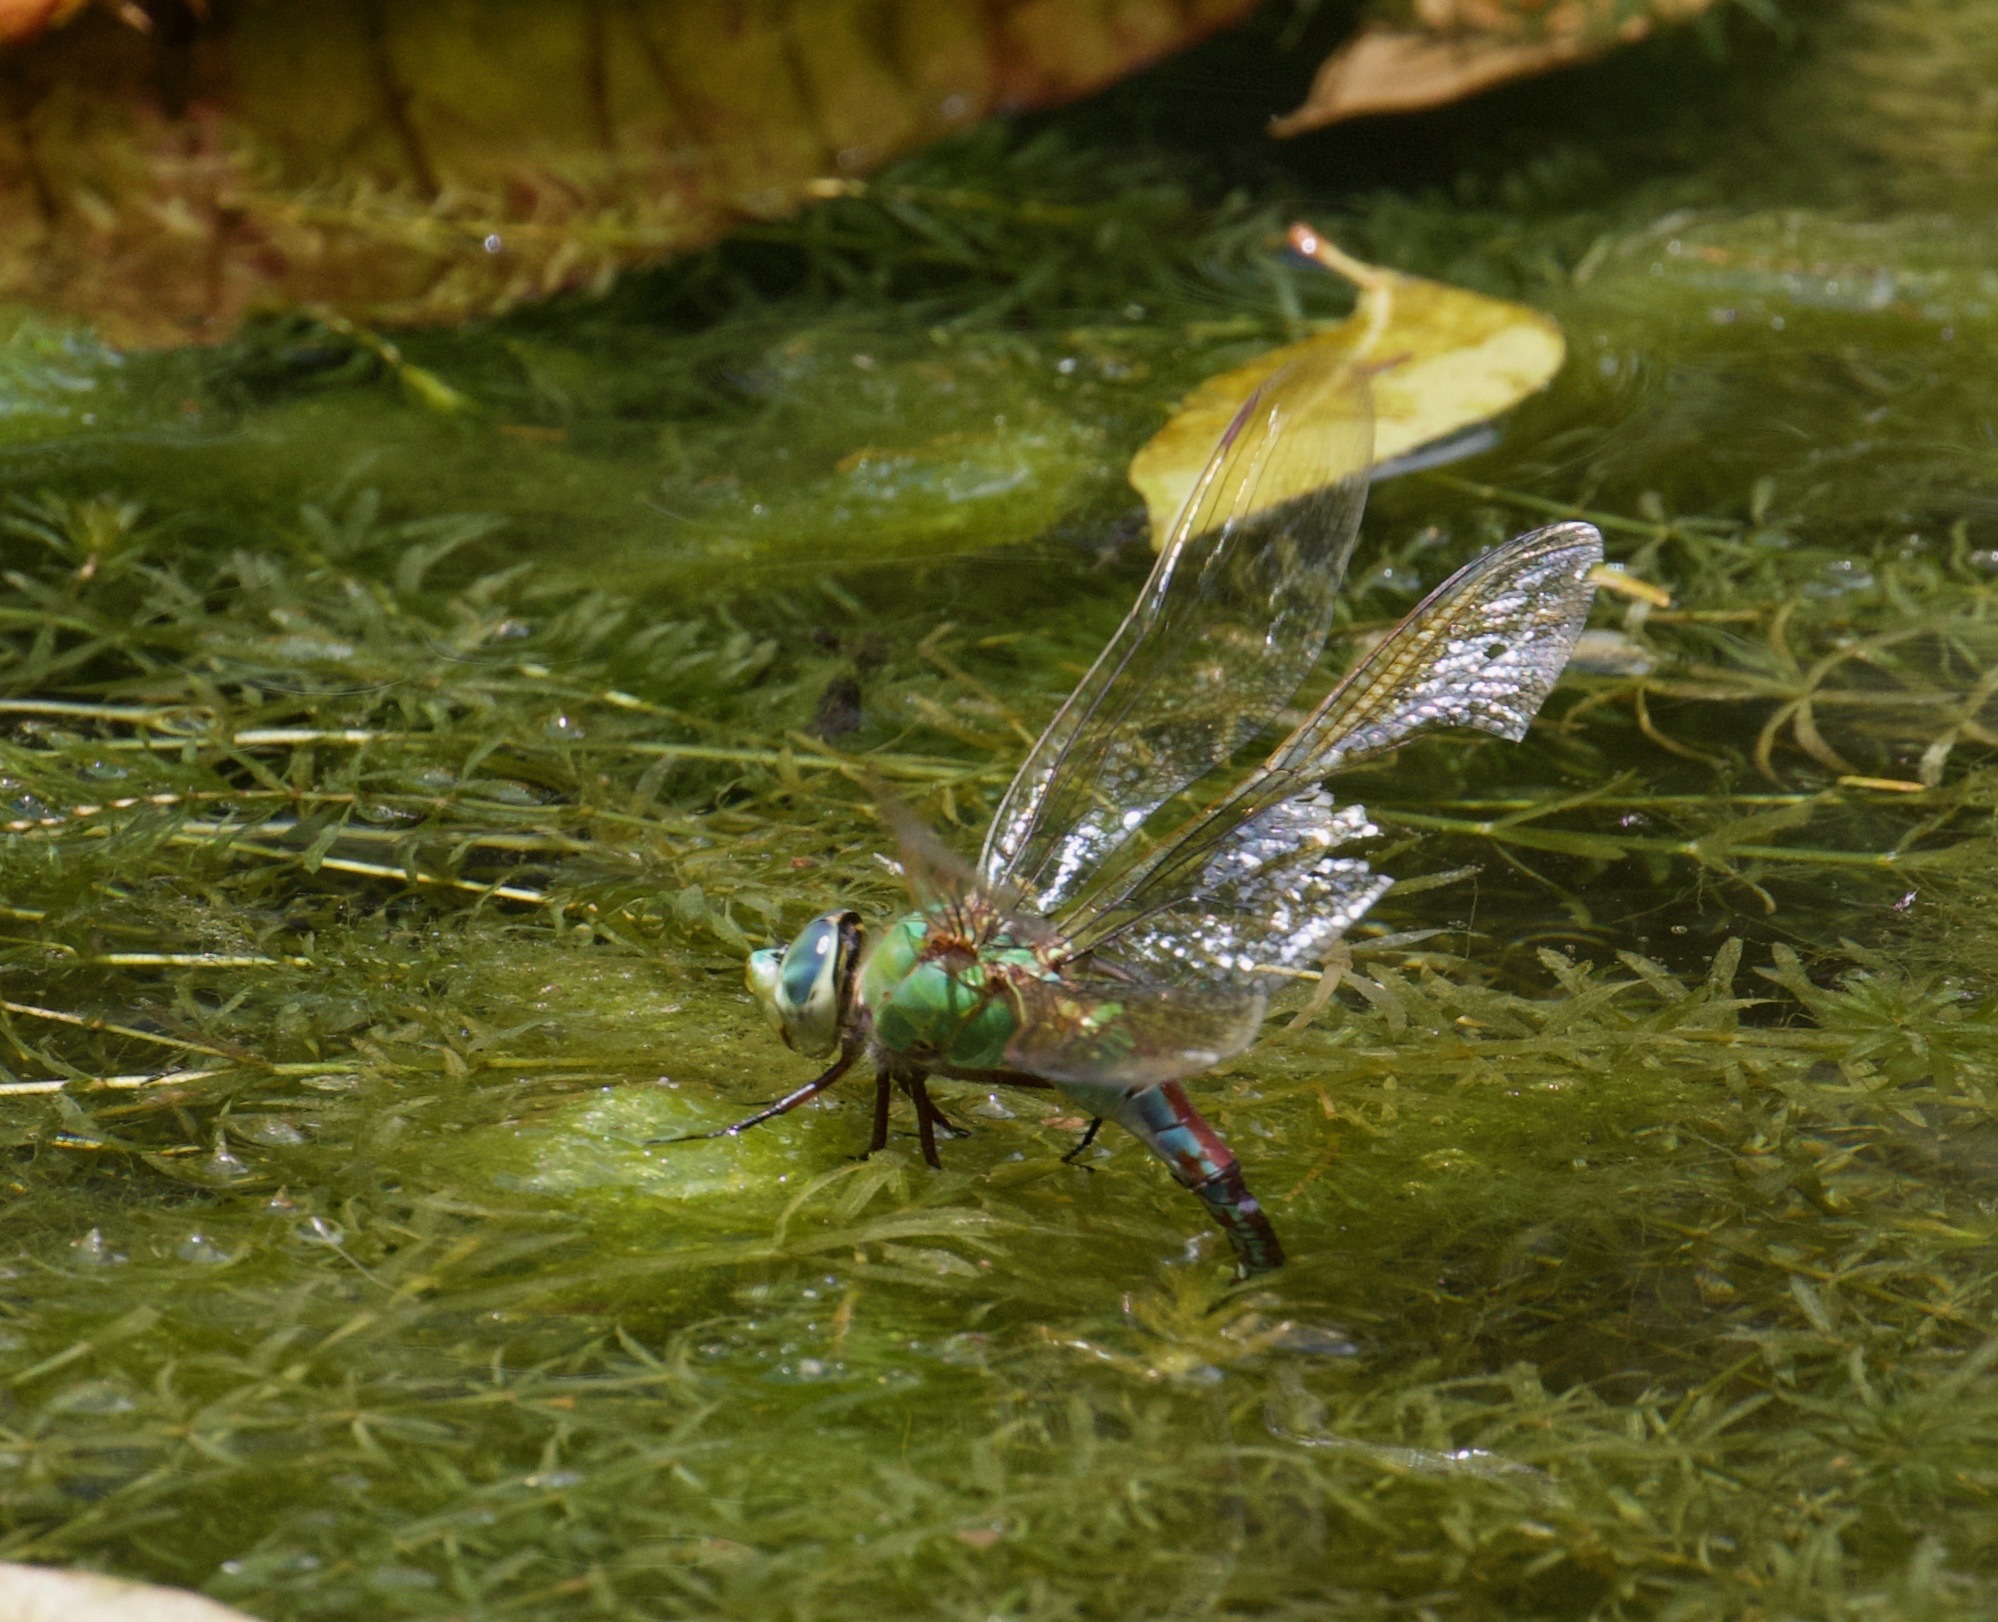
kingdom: Animalia
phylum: Arthropoda
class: Insecta
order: Odonata
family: Aeshnidae
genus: Anax
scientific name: Anax imperator
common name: Emperor dragonfly
